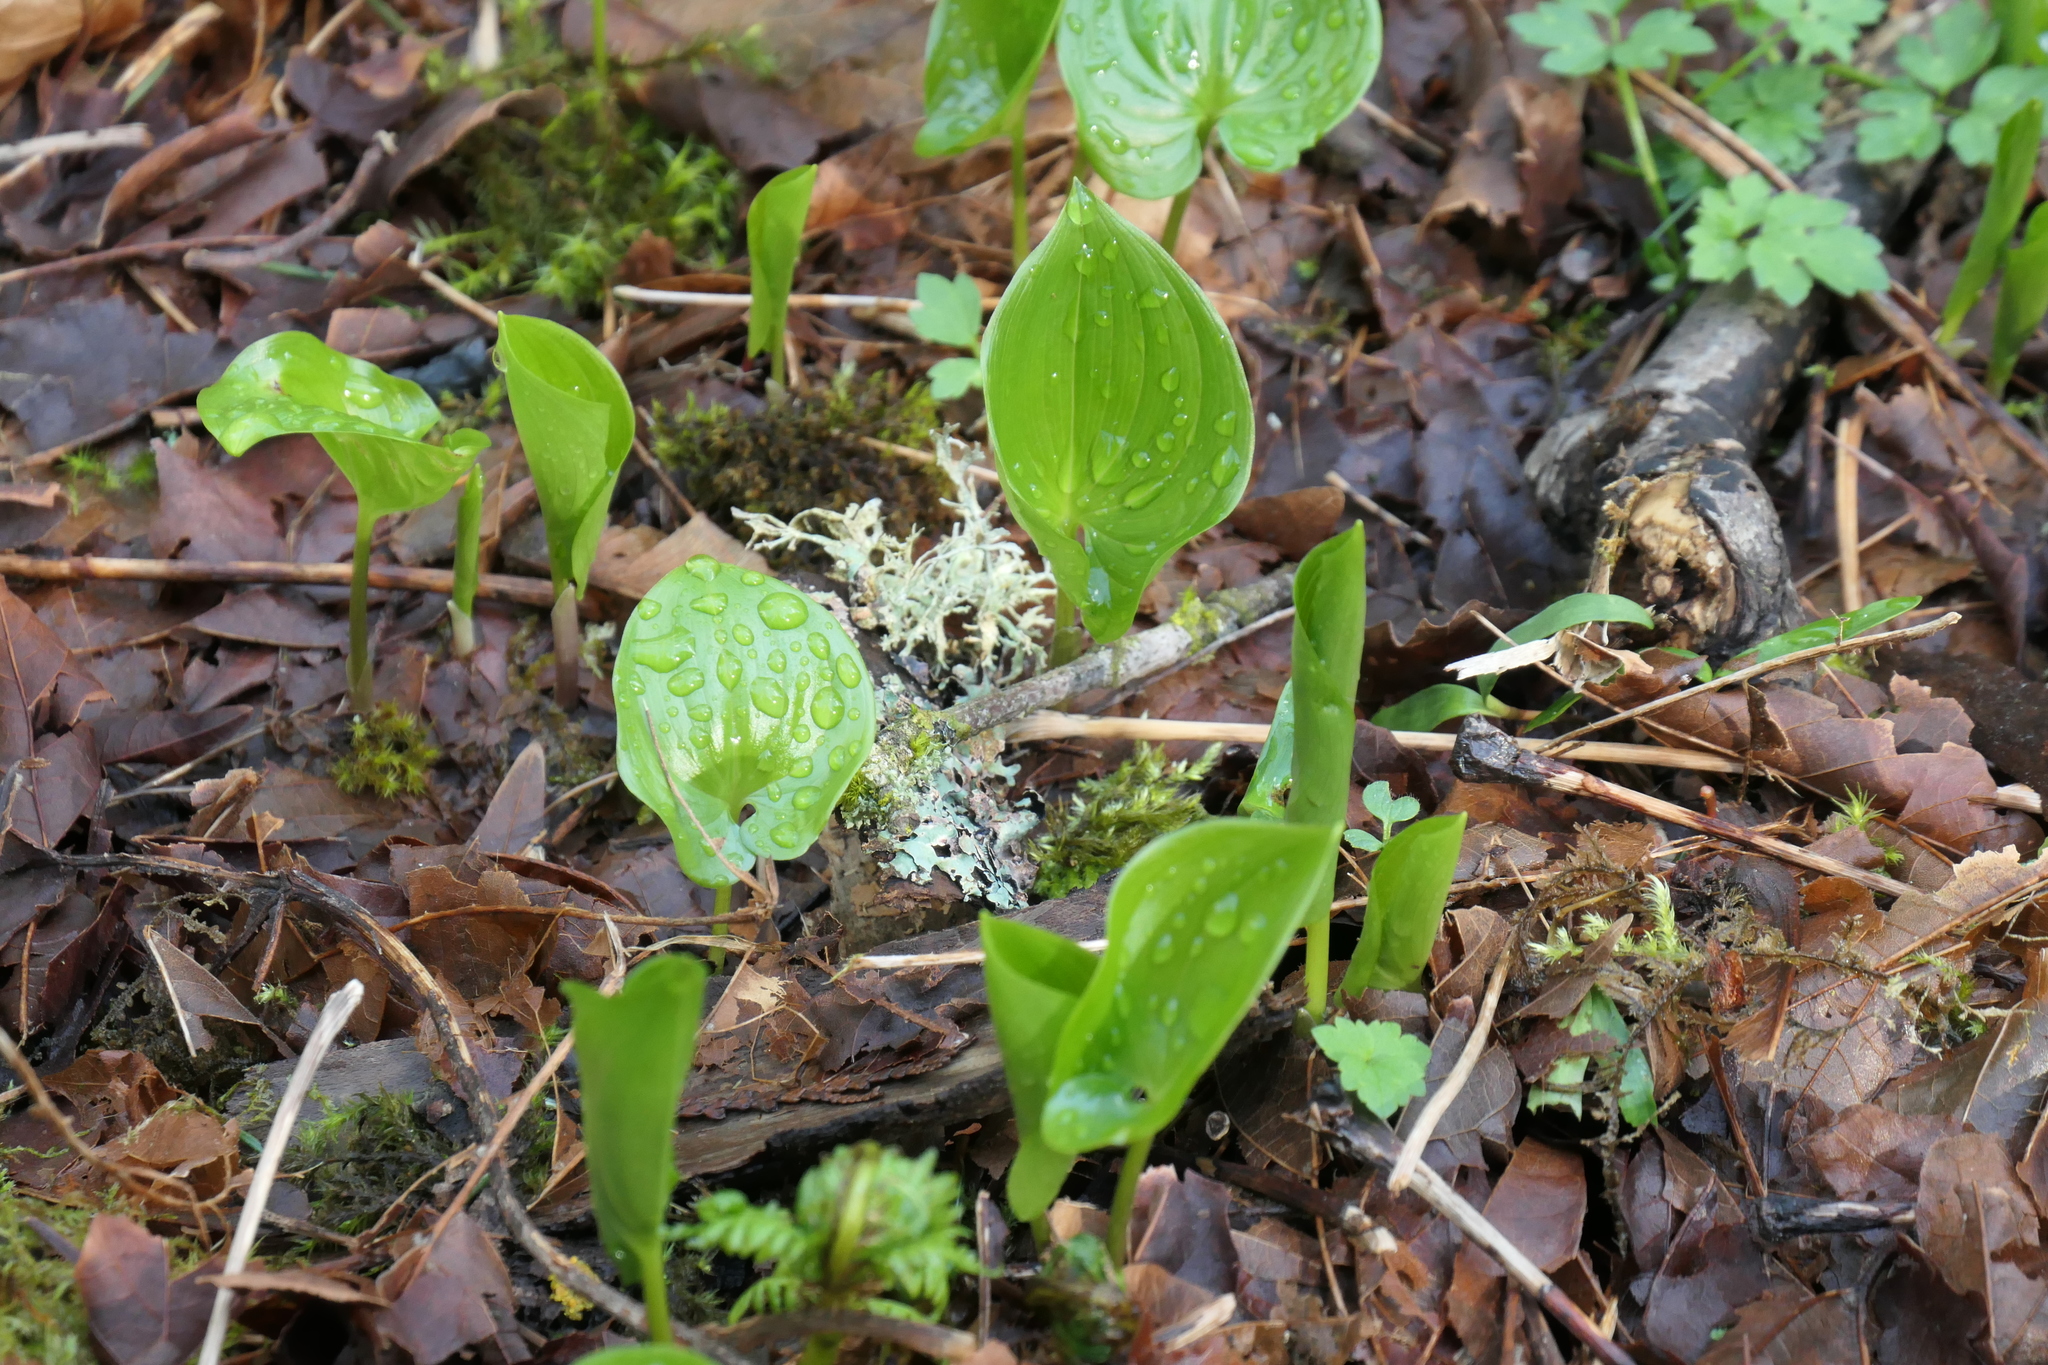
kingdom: Plantae
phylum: Tracheophyta
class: Liliopsida
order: Asparagales
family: Asparagaceae
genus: Maianthemum
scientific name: Maianthemum dilatatum
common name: False lily-of-the-valley
